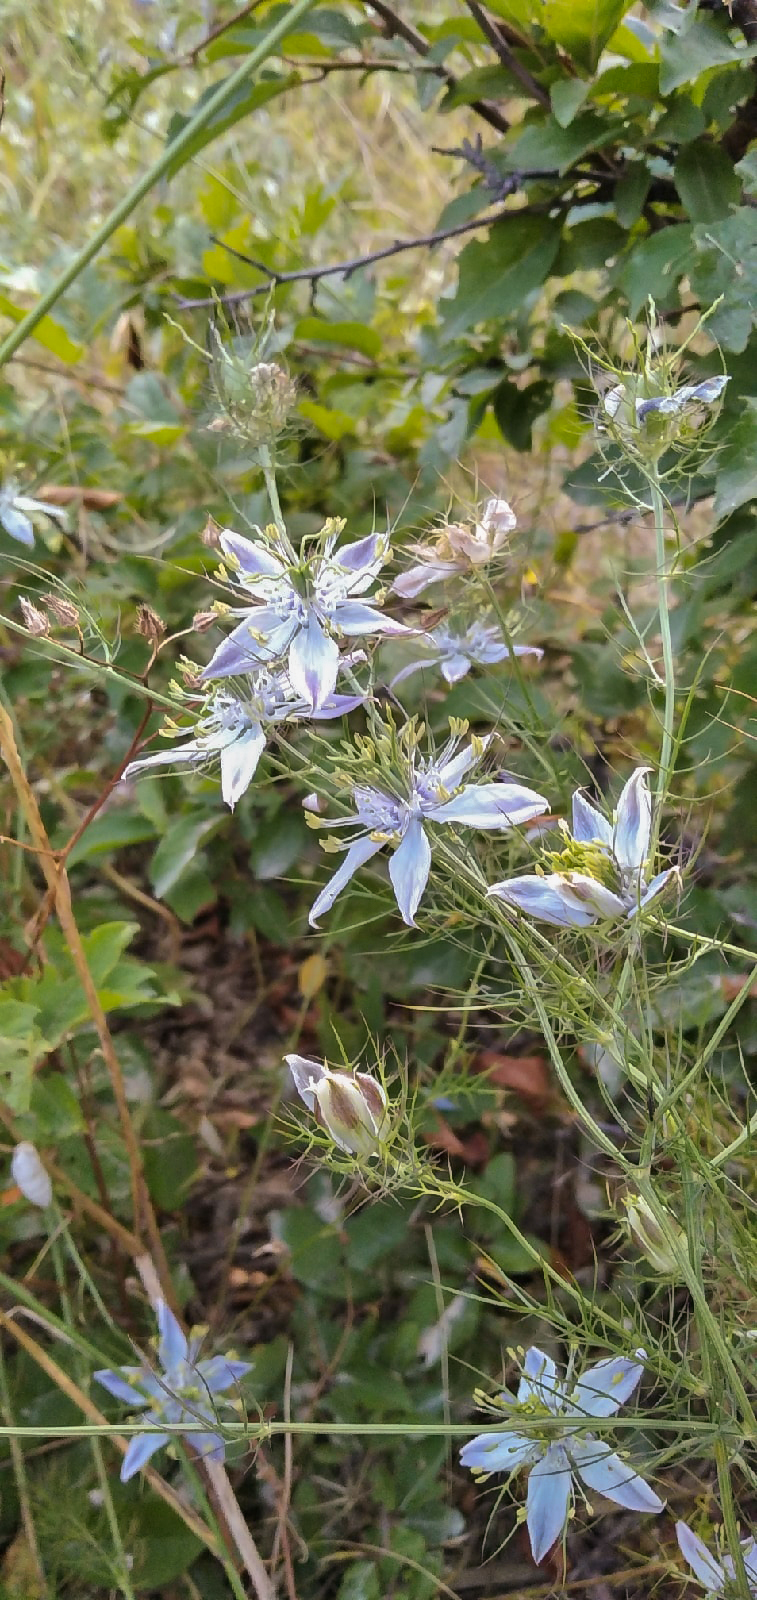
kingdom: Plantae
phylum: Tracheophyta
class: Magnoliopsida
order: Ranunculales
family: Ranunculaceae
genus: Nigella
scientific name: Nigella elata
